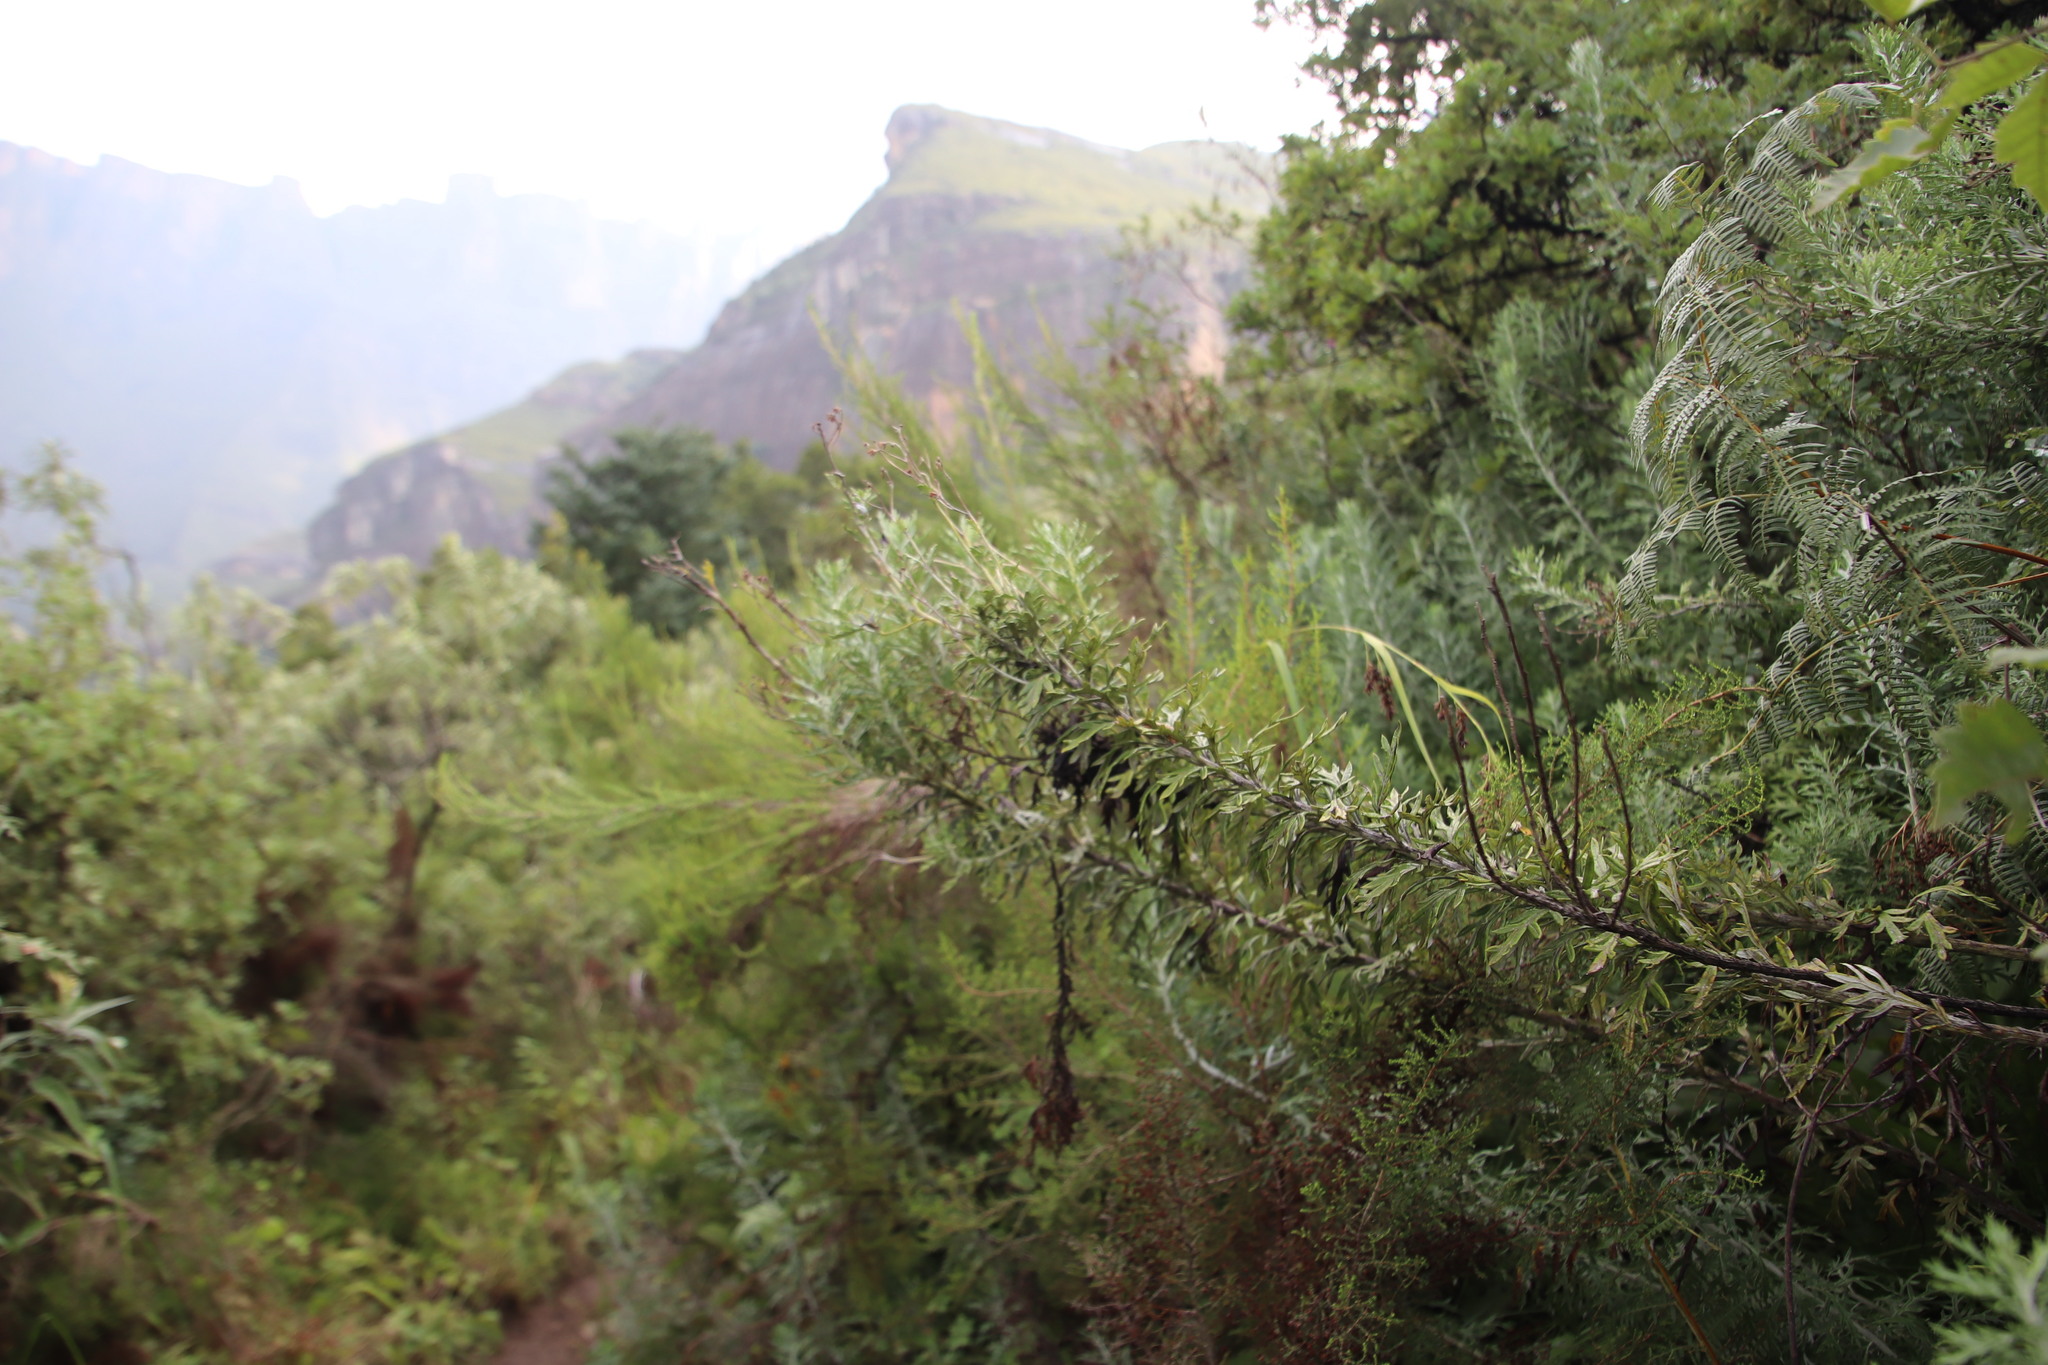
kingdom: Plantae
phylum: Tracheophyta
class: Magnoliopsida
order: Asterales
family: Asteraceae
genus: Senecio
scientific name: Senecio haygarthii
